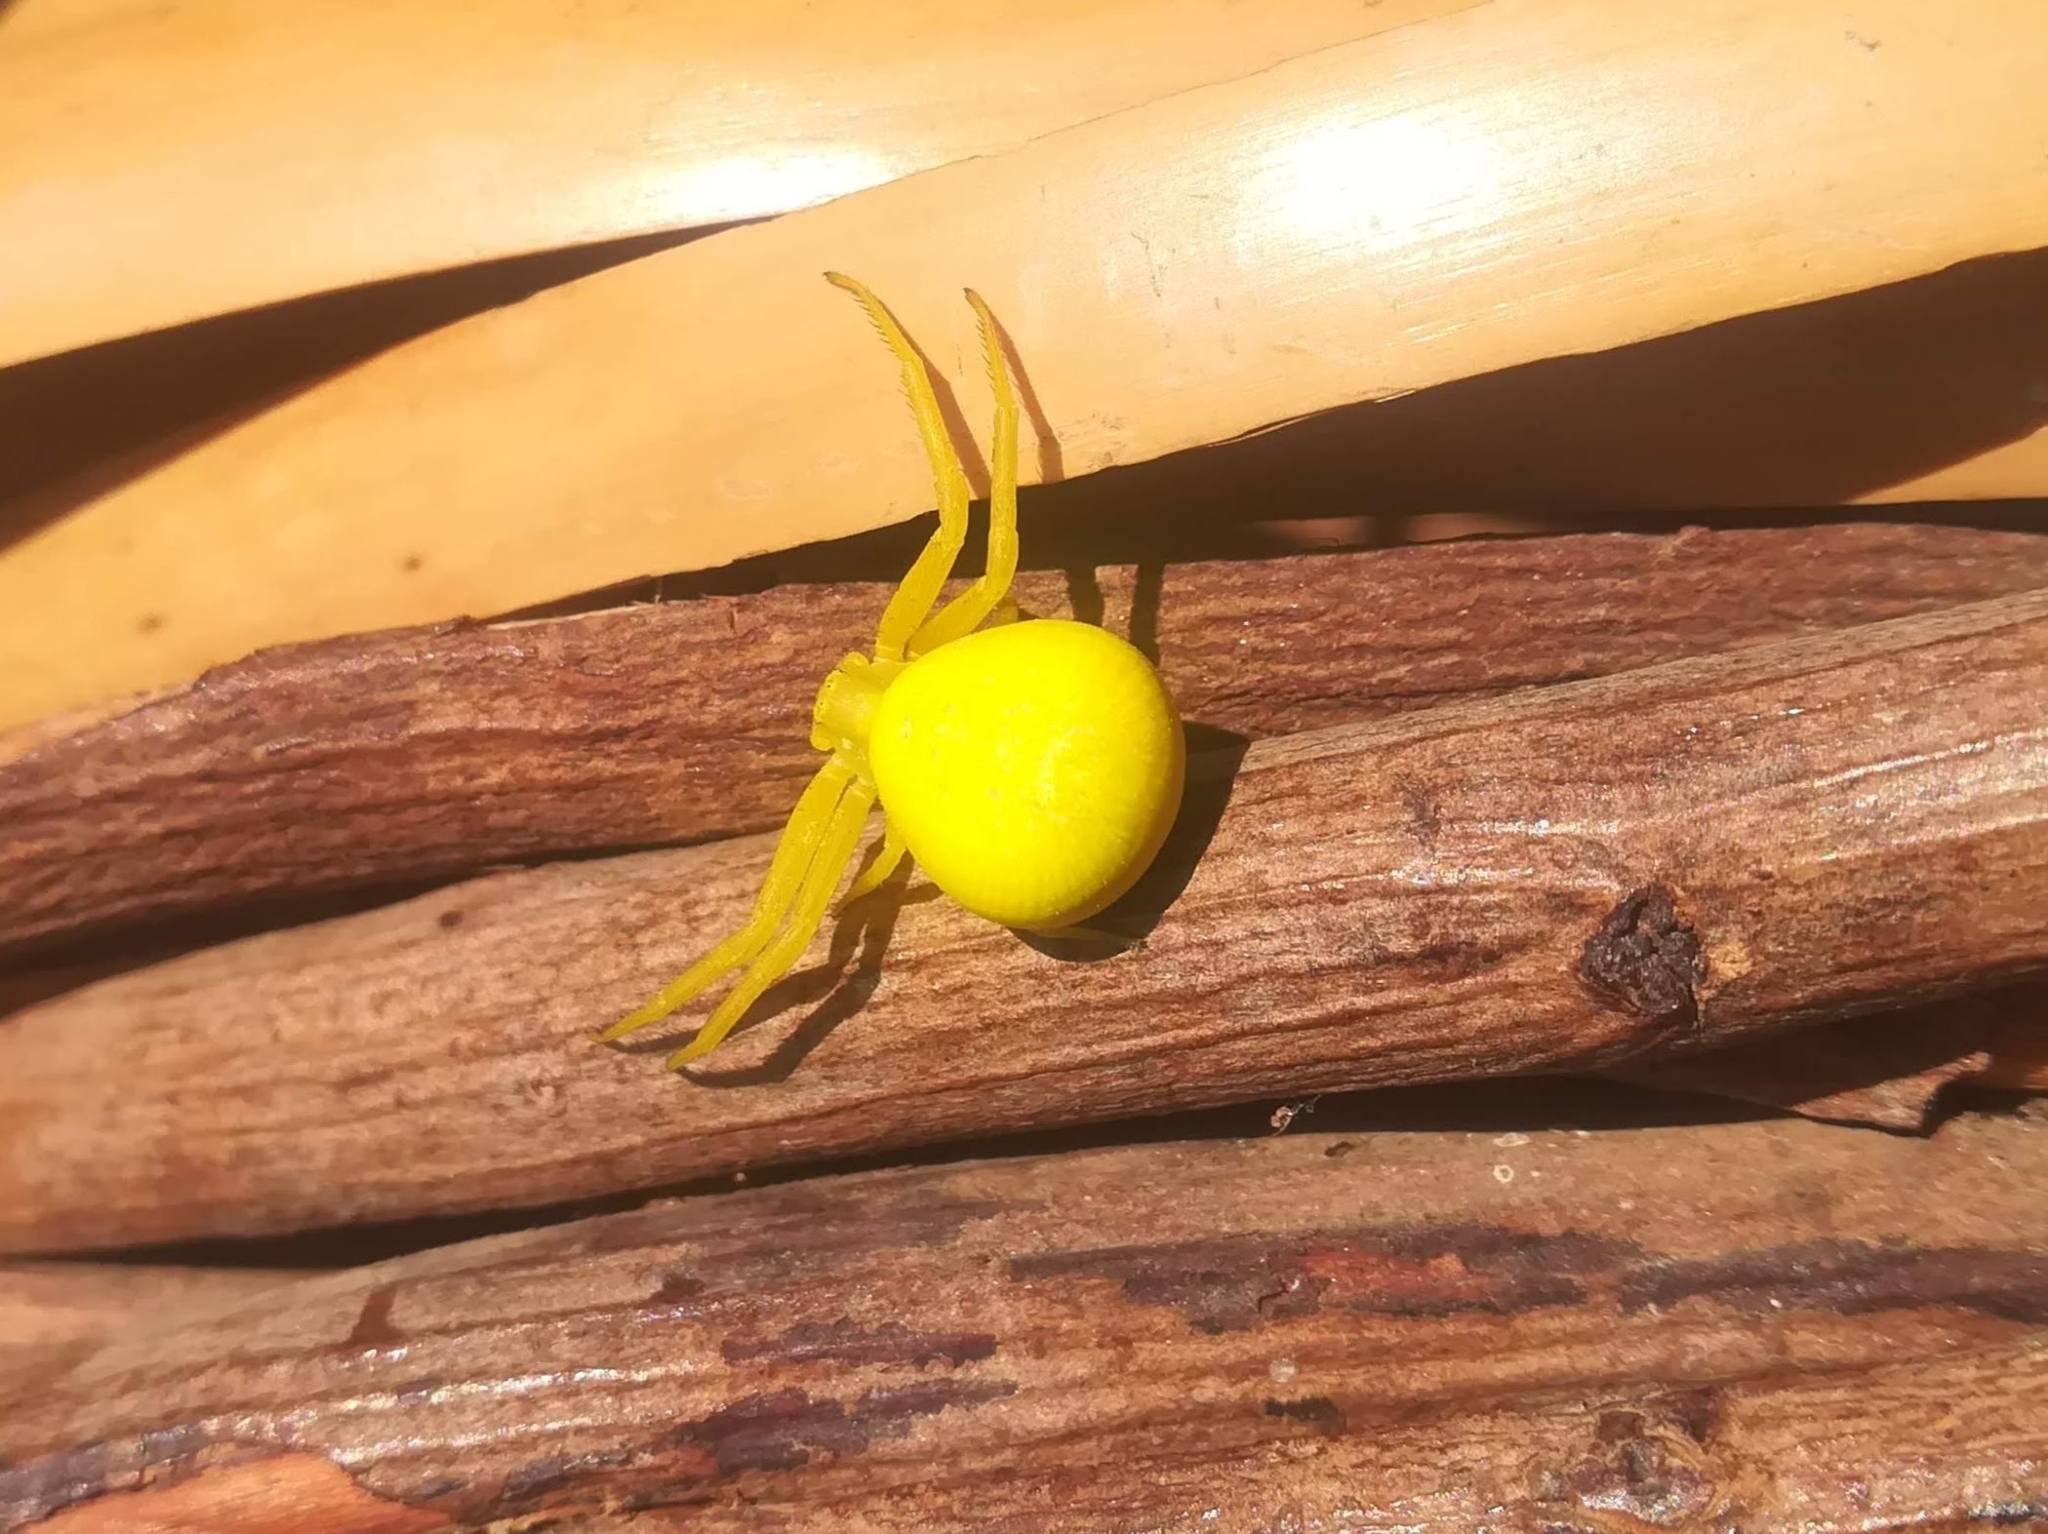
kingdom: Animalia
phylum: Arthropoda
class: Arachnida
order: Araneae
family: Thomisidae
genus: Misumena
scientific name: Misumena vatia
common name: Goldenrod crab spider
